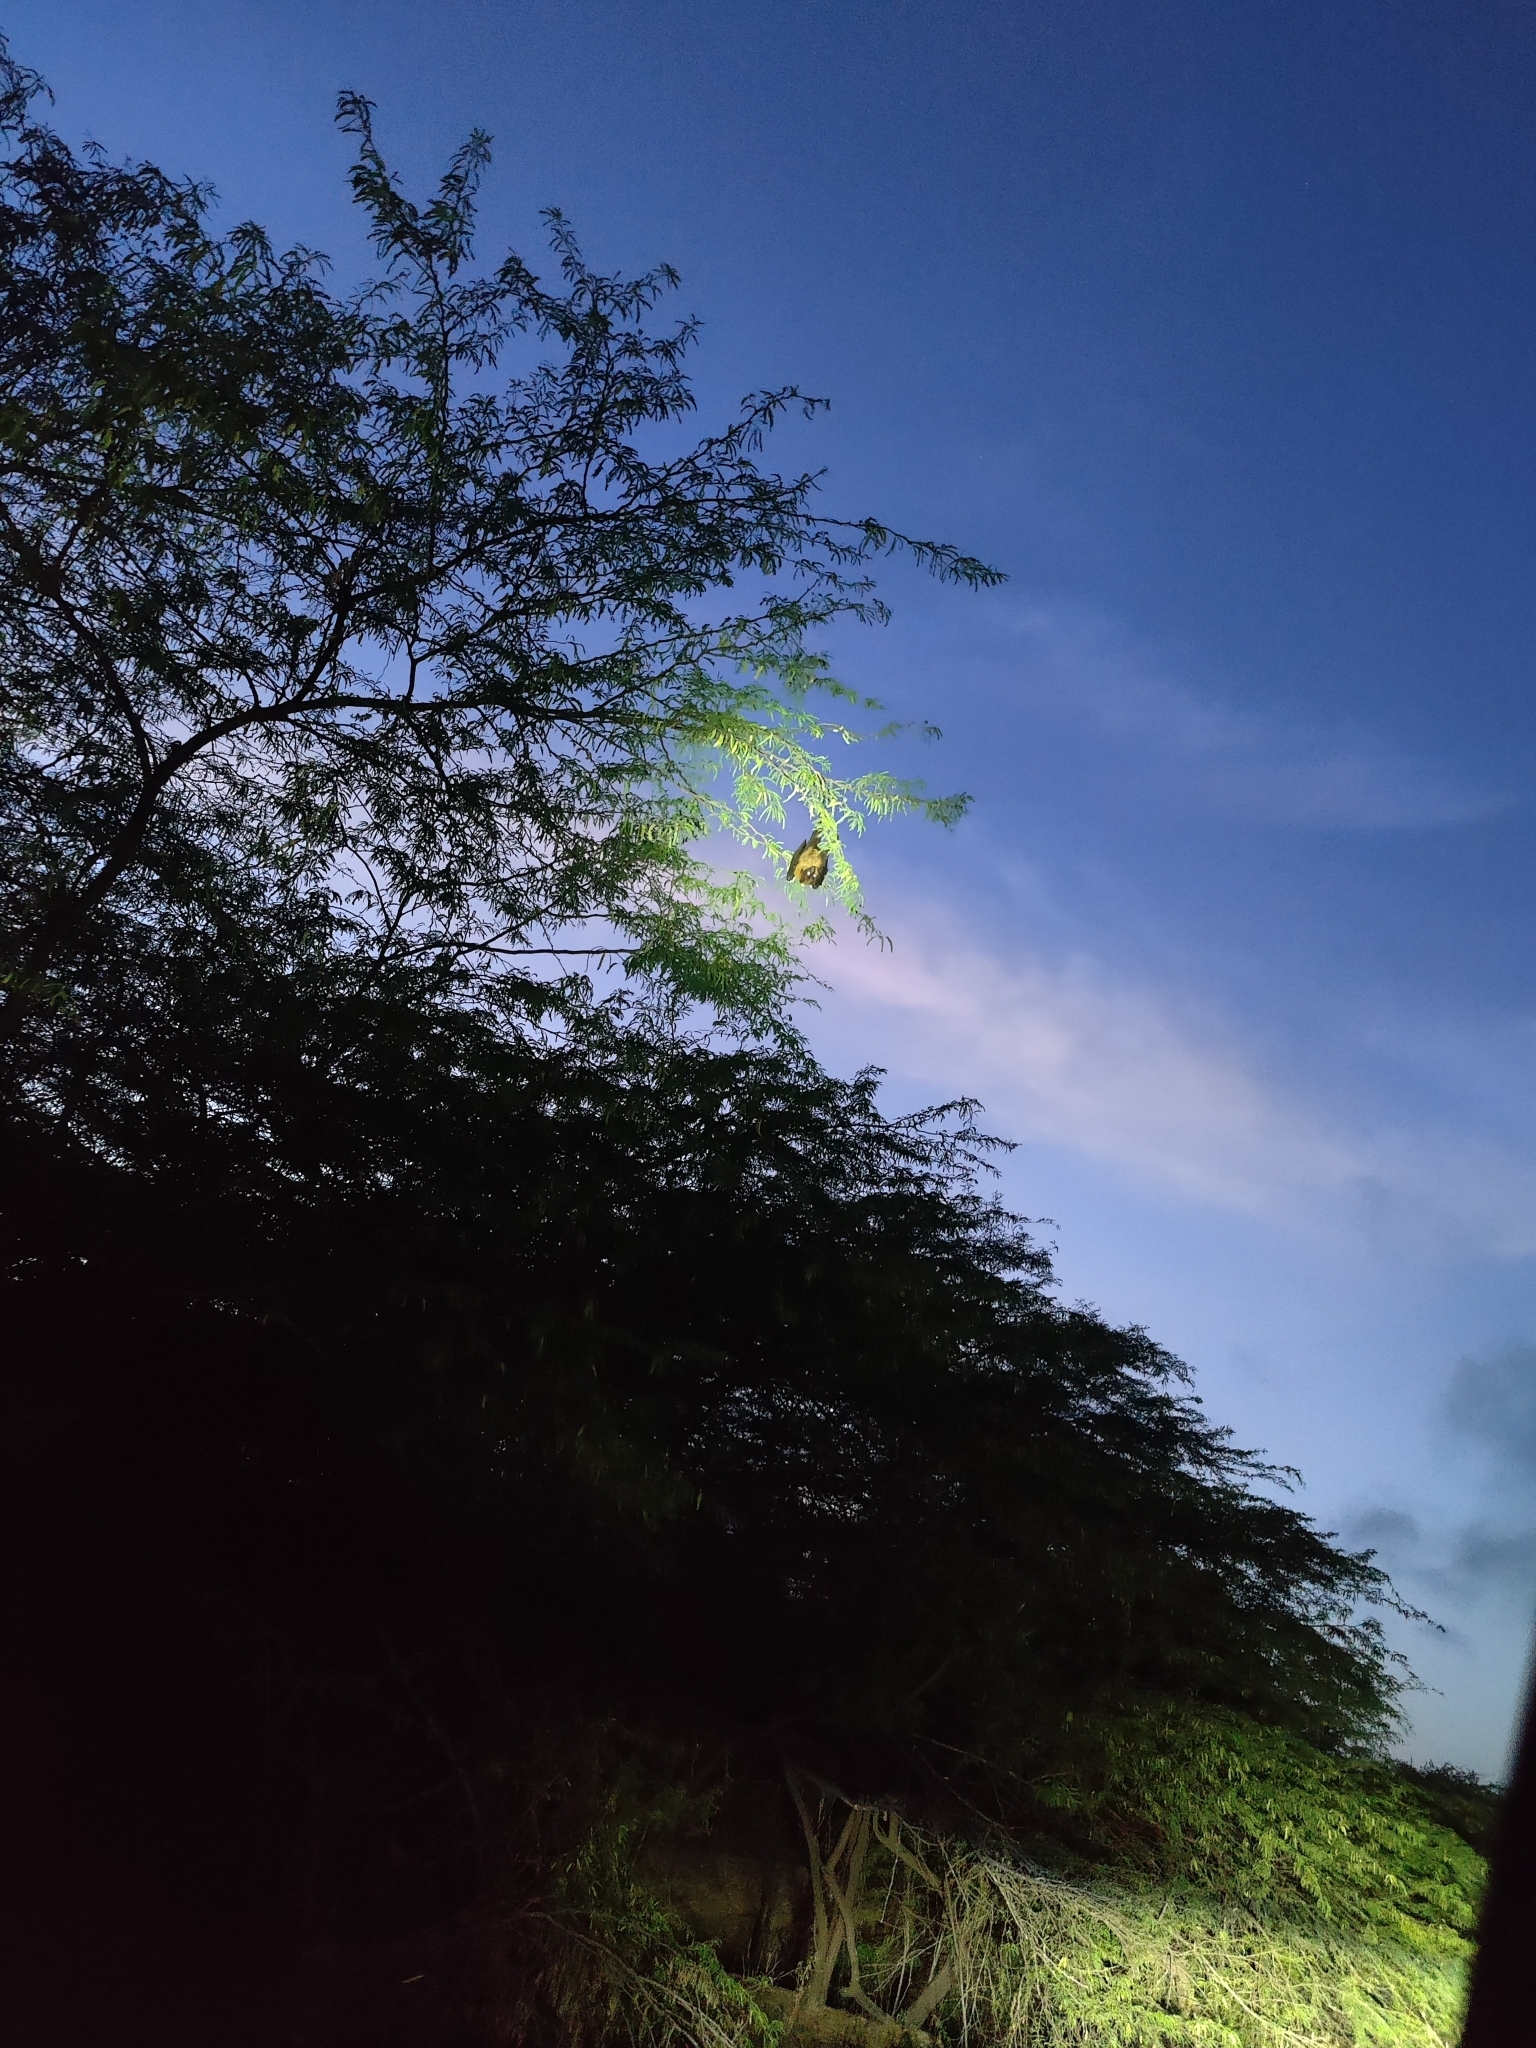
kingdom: Animalia
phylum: Chordata
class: Mammalia
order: Chiroptera
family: Pteropodidae
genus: Pteropus
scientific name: Pteropus vampyrus
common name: Large flying fox
